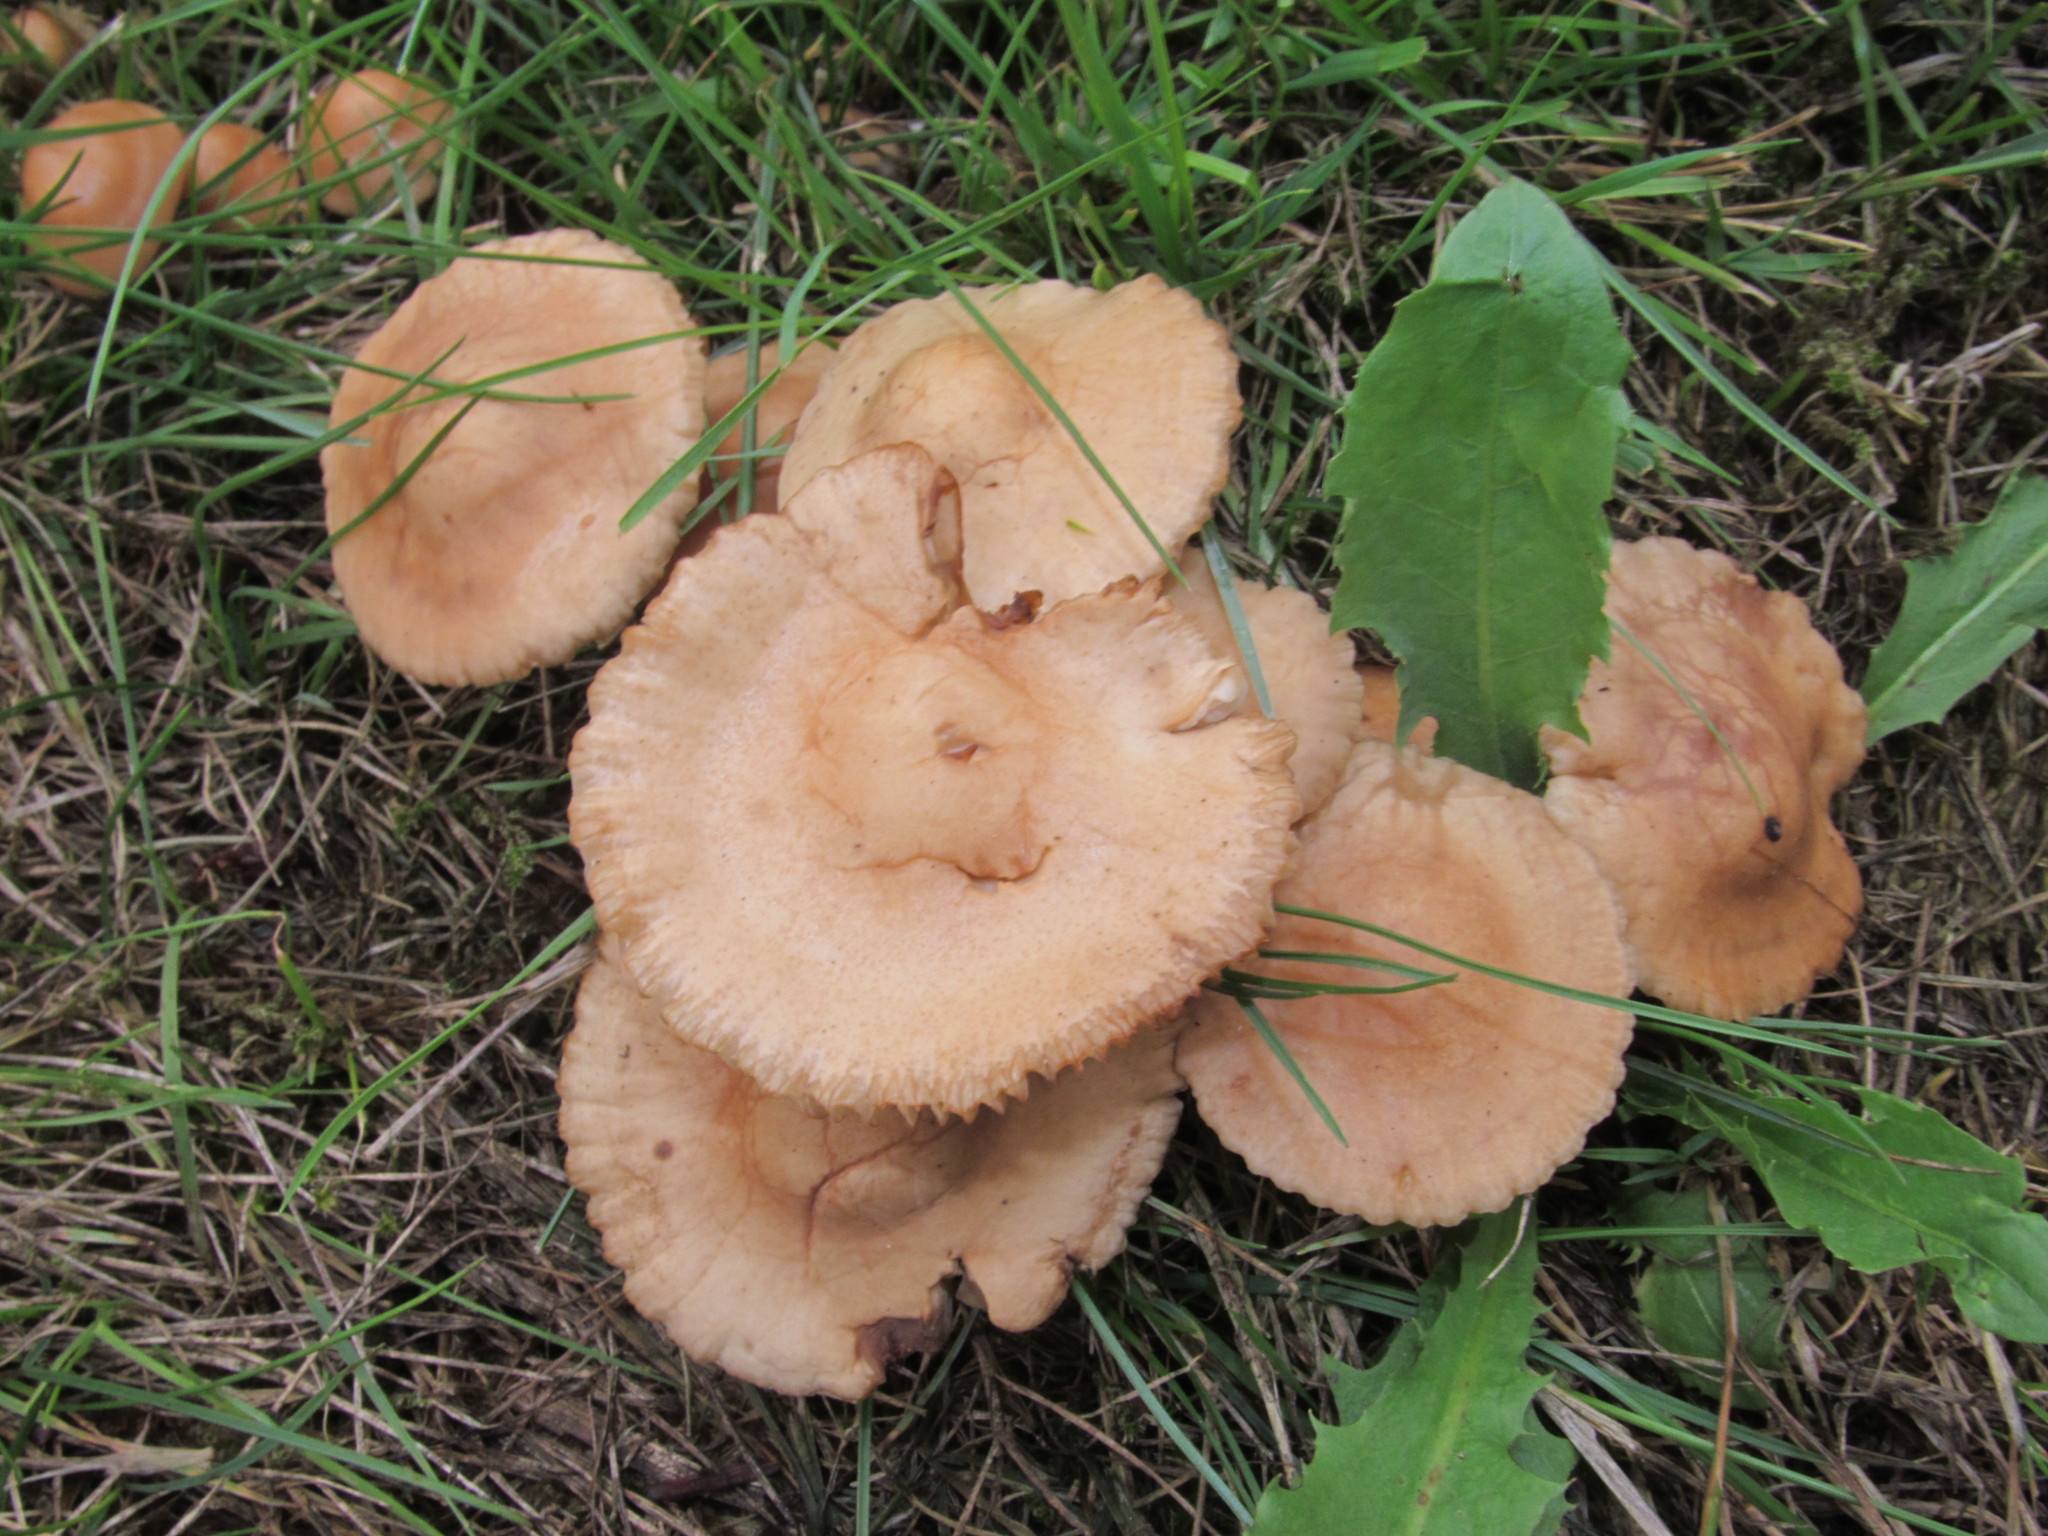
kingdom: Fungi
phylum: Basidiomycota
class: Agaricomycetes
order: Agaricales
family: Marasmiaceae
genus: Marasmius
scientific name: Marasmius oreades
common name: Fairy ring champignon
